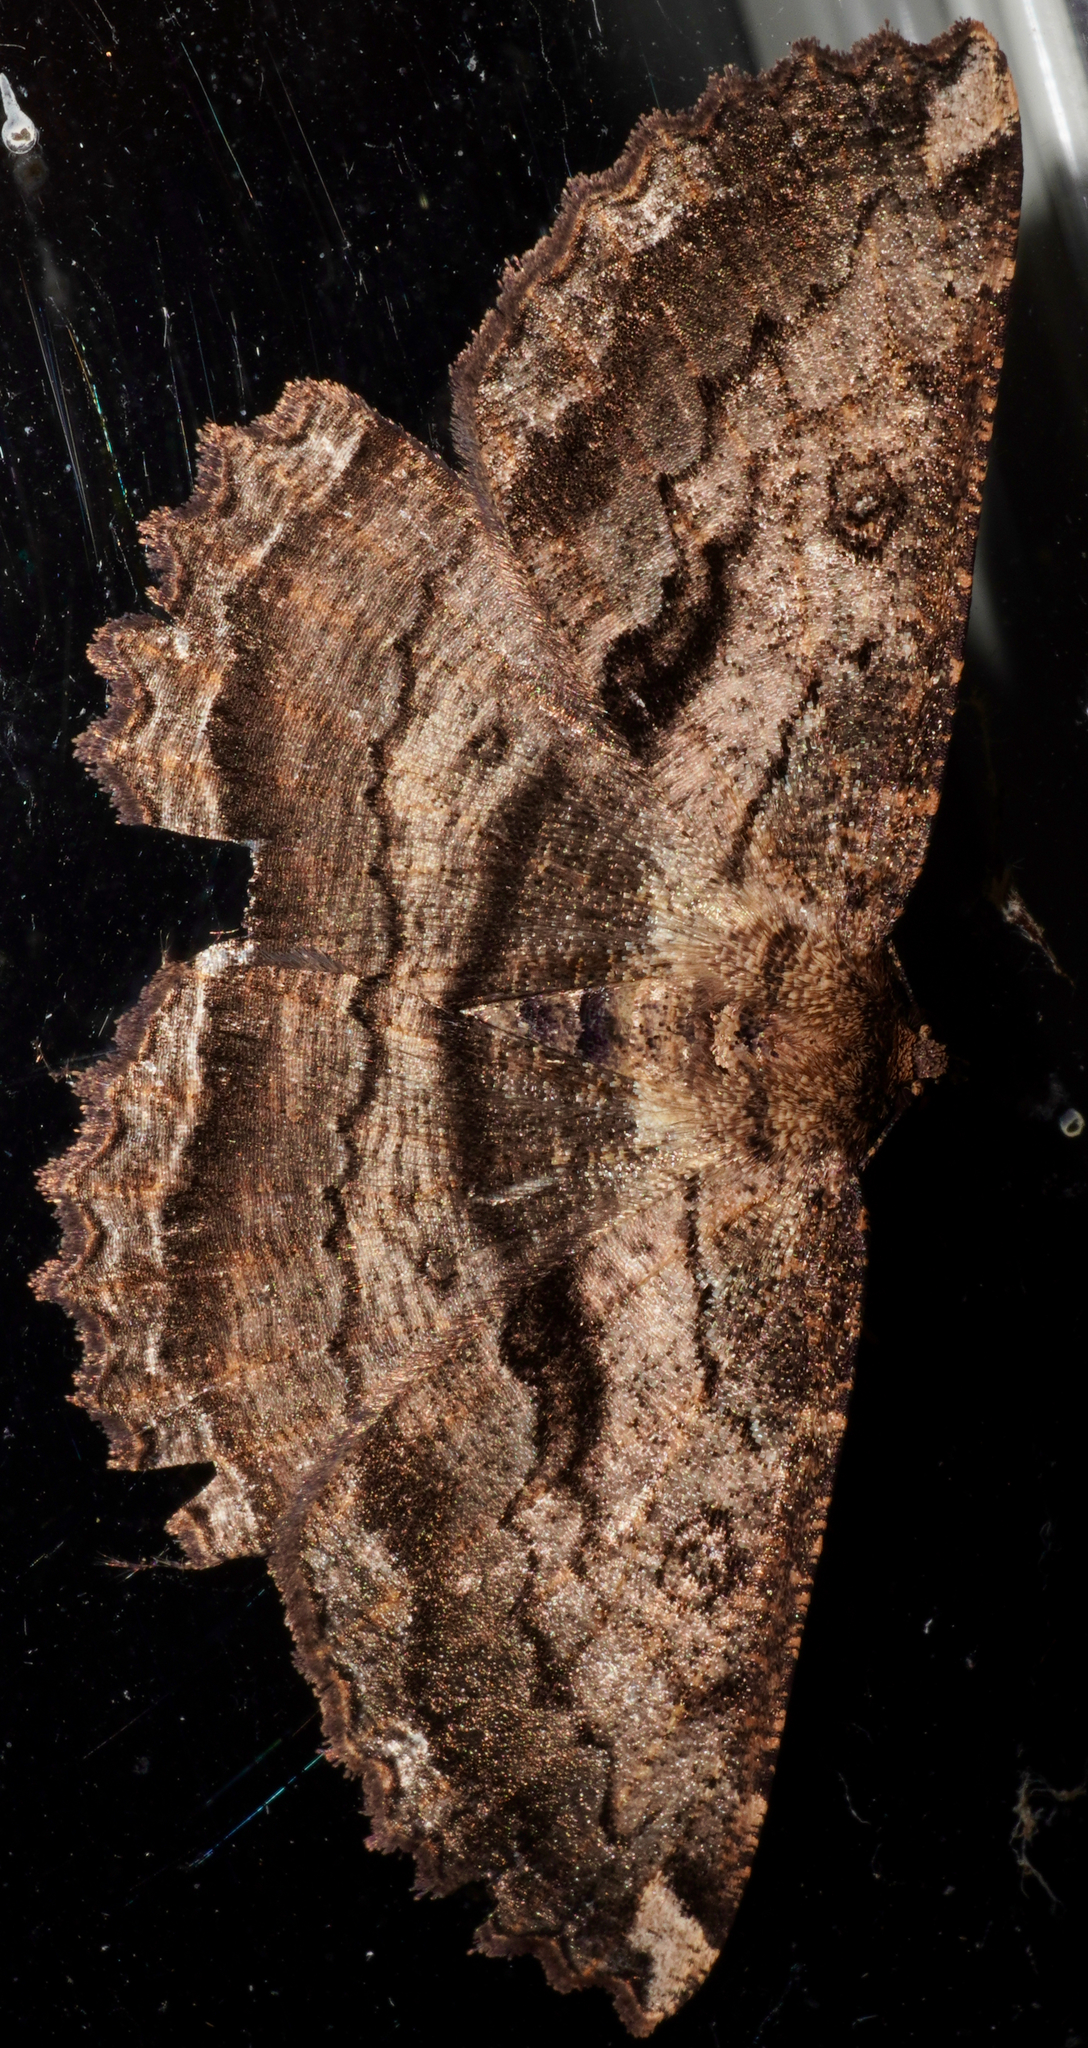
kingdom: Animalia
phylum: Arthropoda
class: Insecta
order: Lepidoptera
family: Geometridae
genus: Gellonia
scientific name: Gellonia dejectaria
